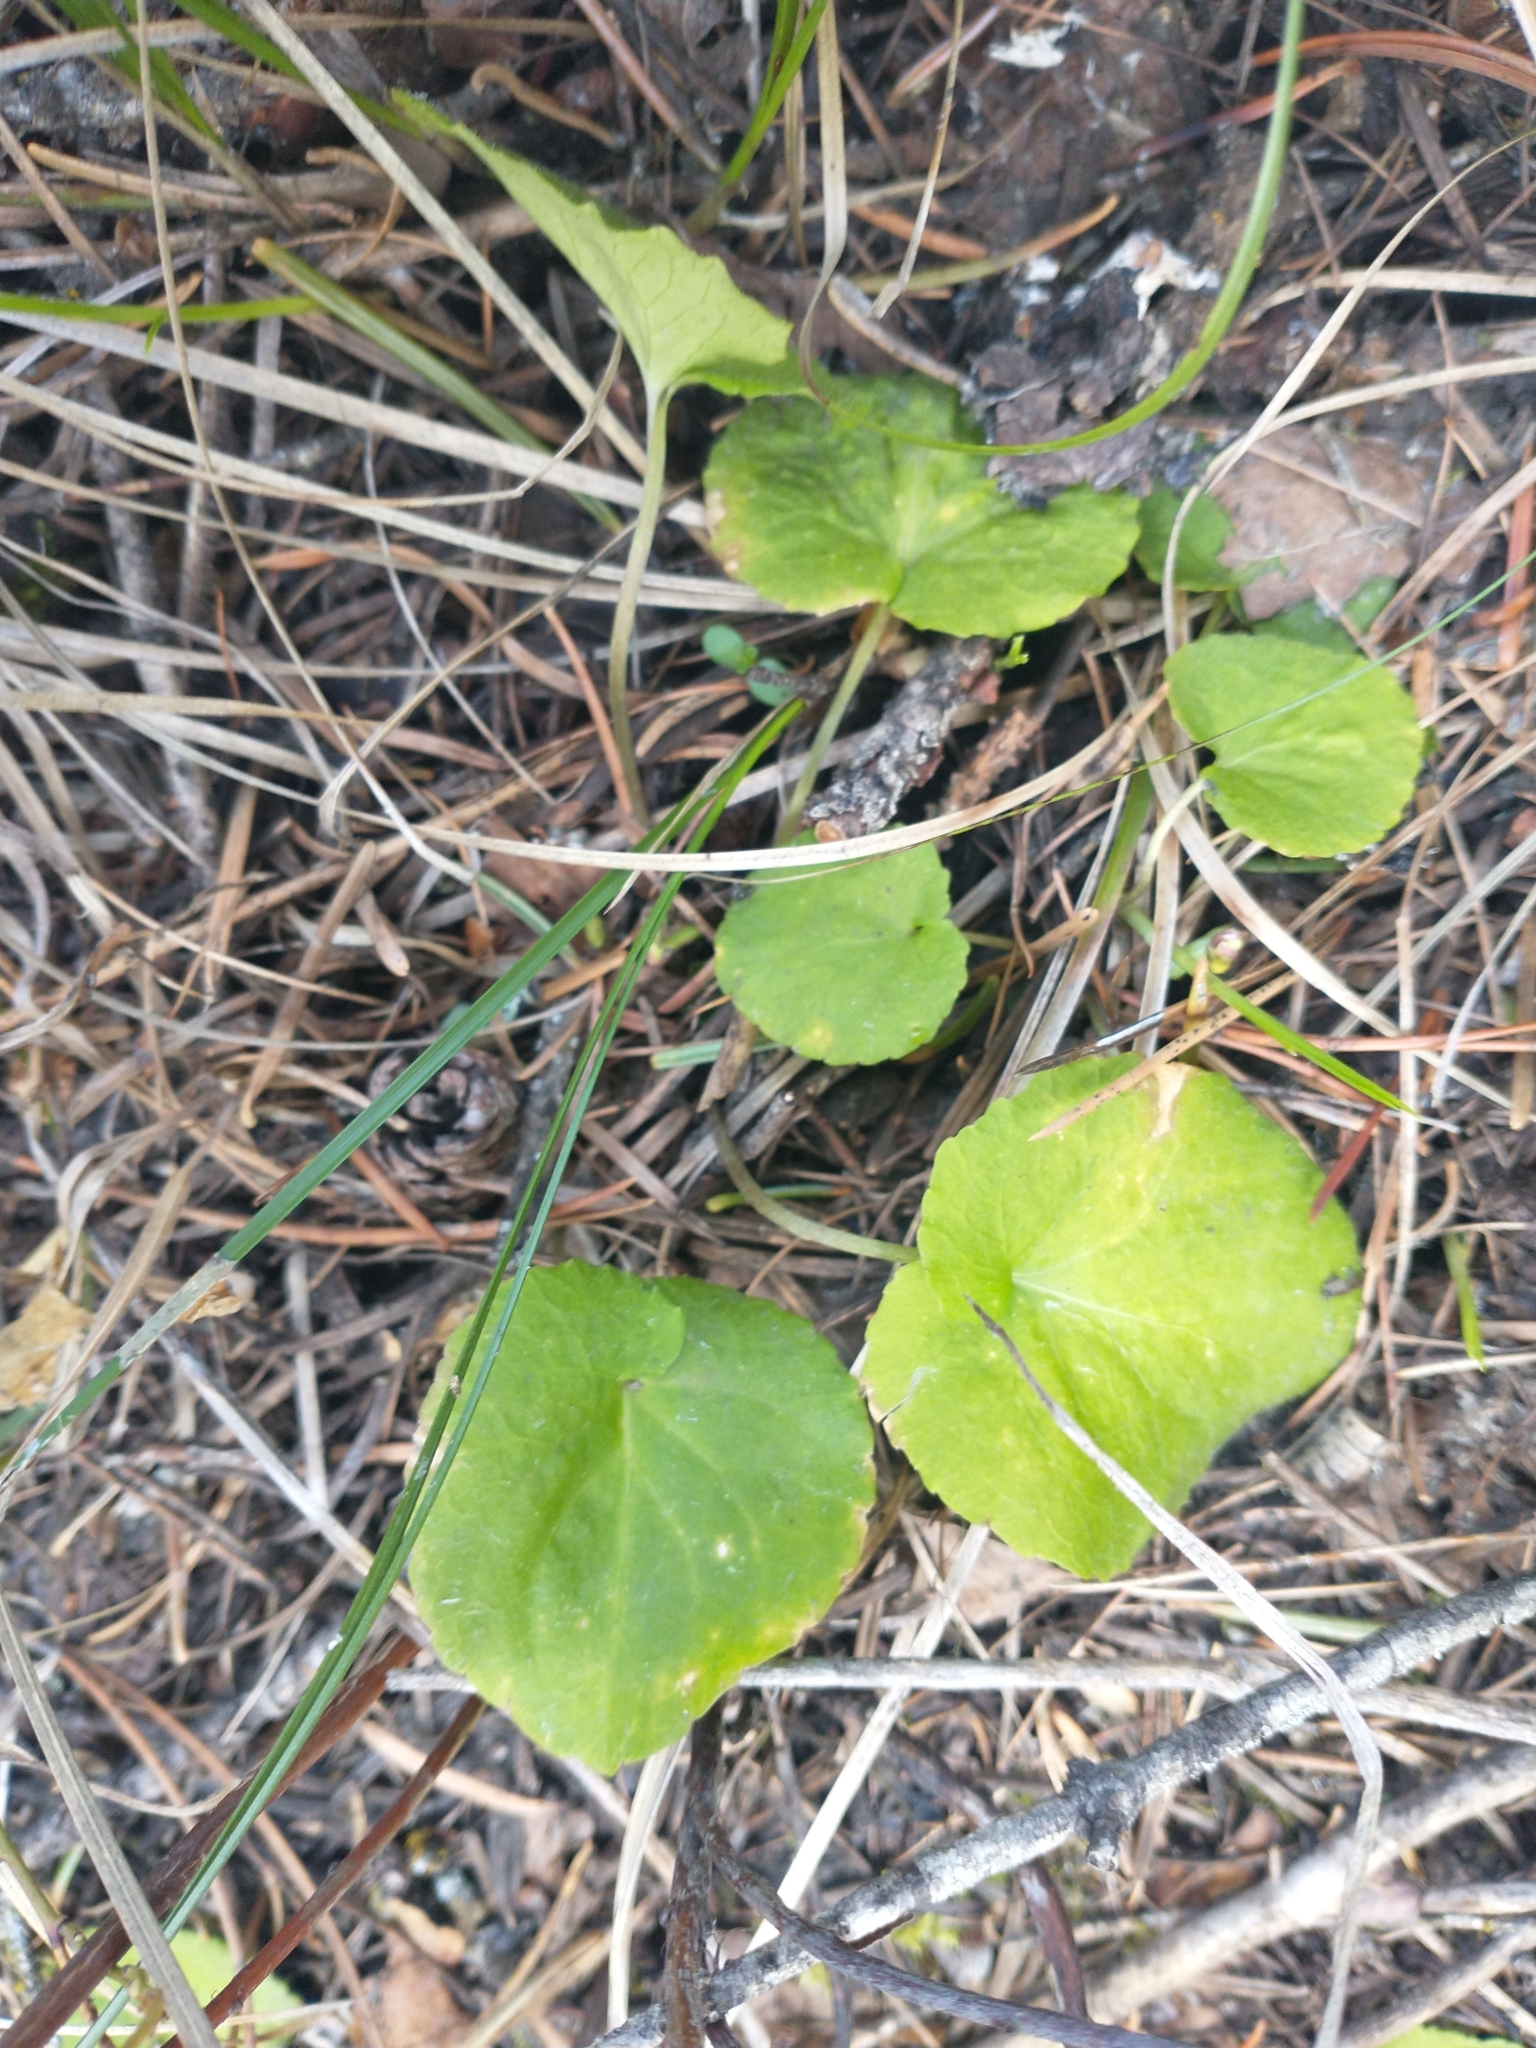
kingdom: Plantae
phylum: Tracheophyta
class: Magnoliopsida
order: Malpighiales
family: Violaceae
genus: Viola
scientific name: Viola orbiculata
